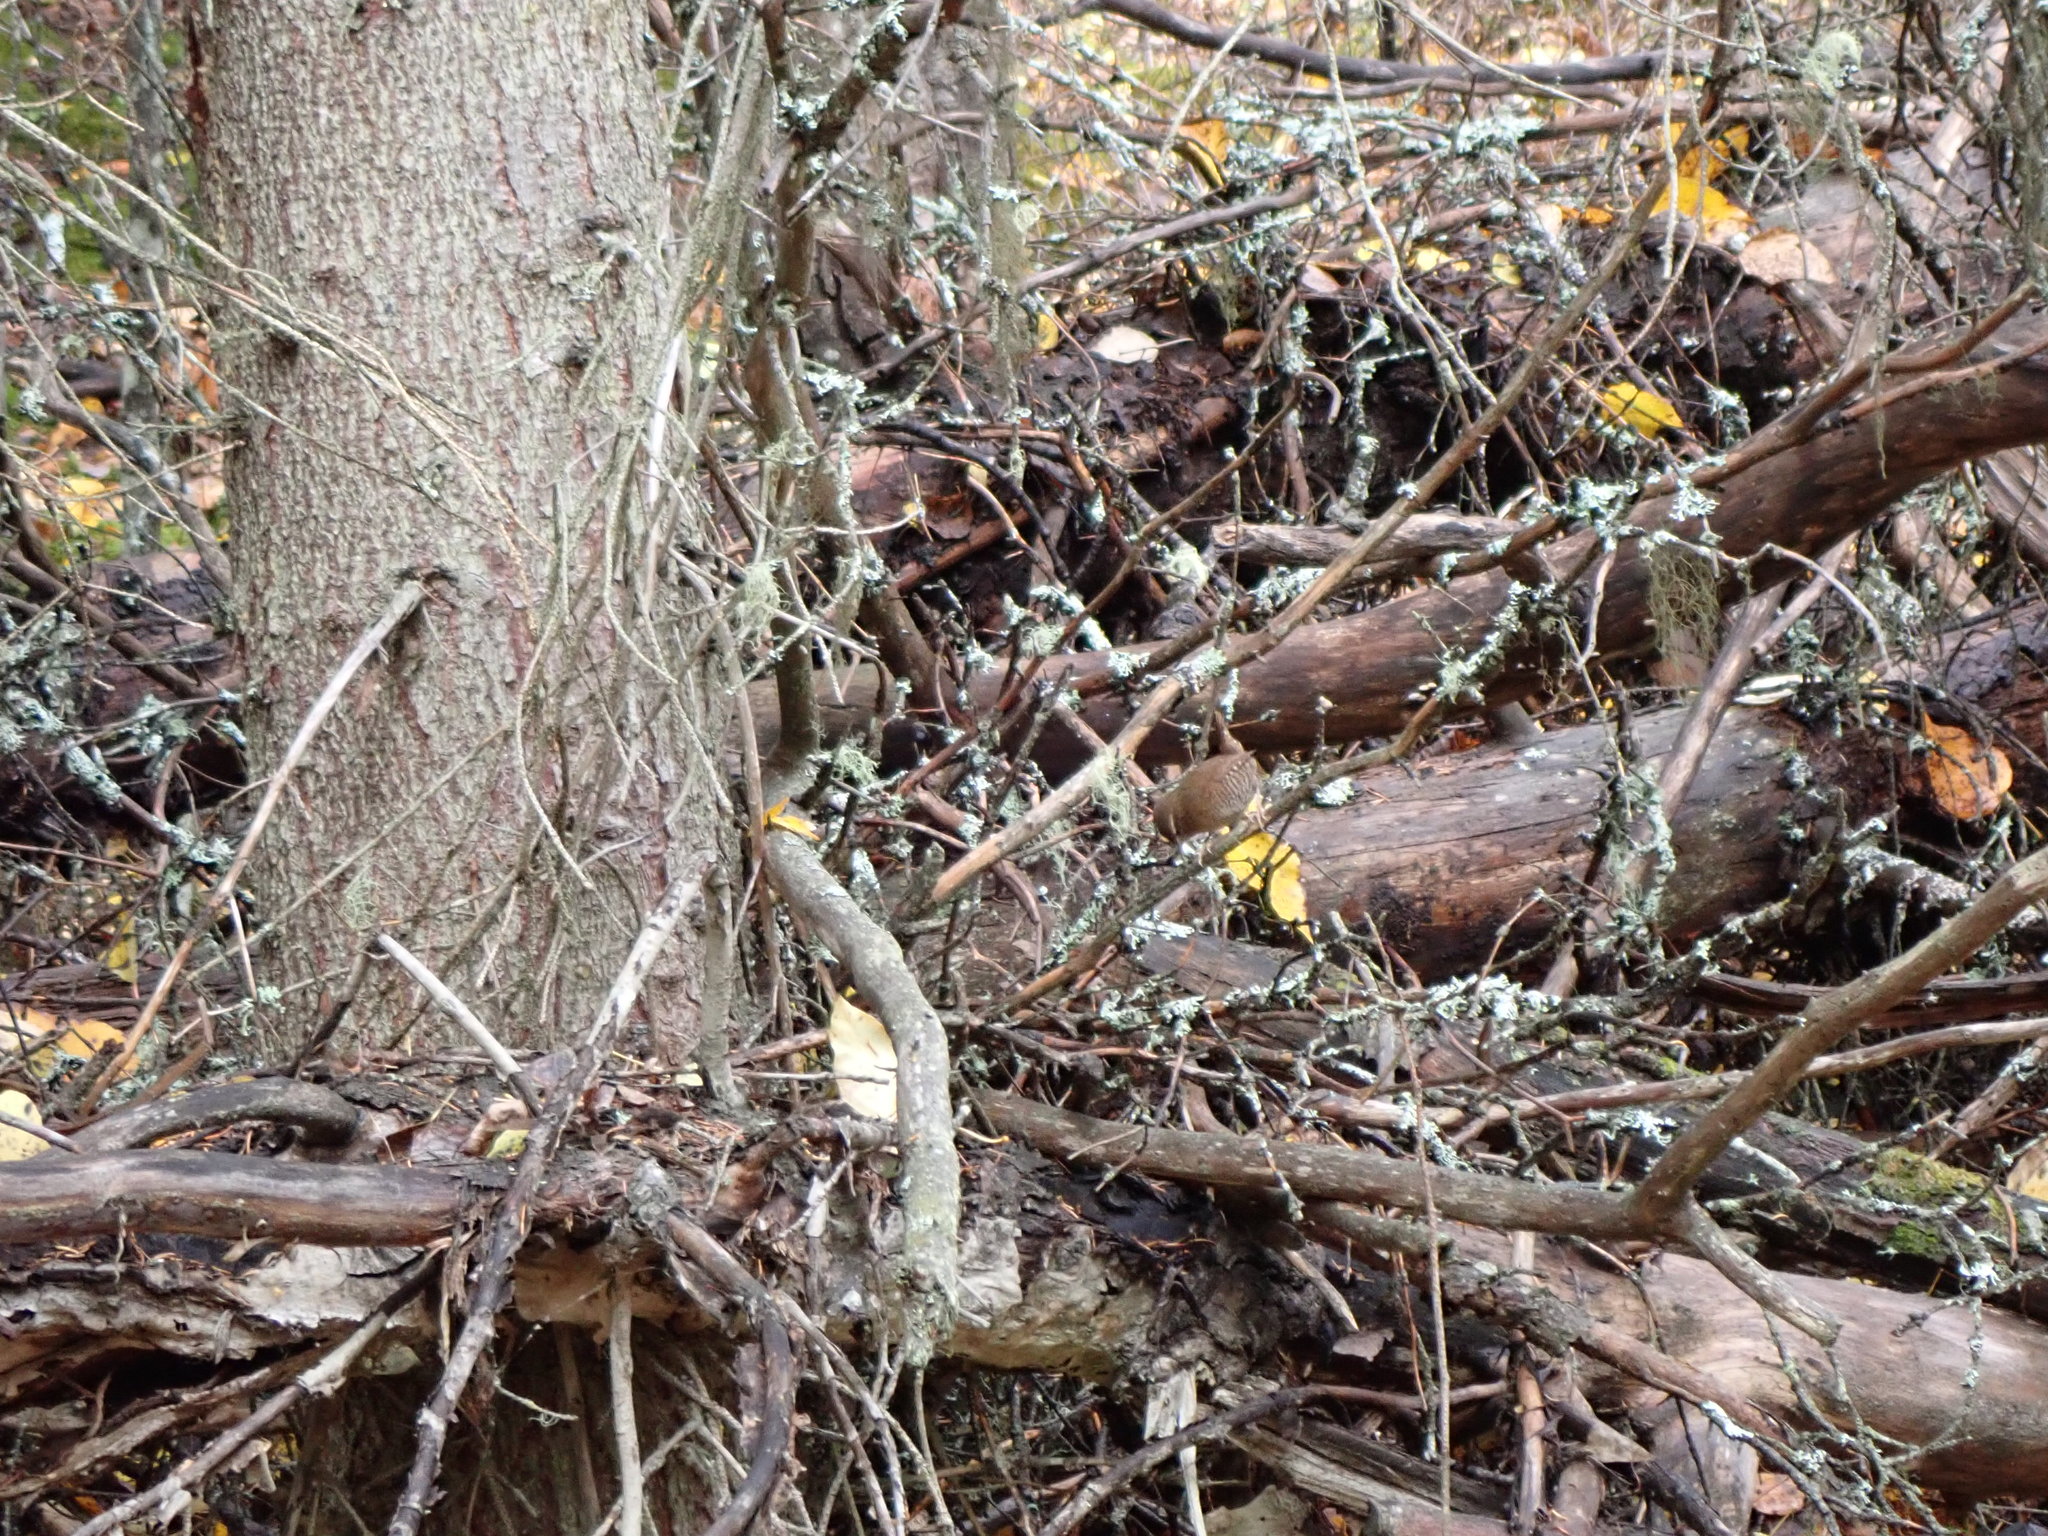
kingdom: Animalia
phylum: Chordata
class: Aves
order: Passeriformes
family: Troglodytidae
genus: Troglodytes
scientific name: Troglodytes pacificus
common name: Pacific wren
